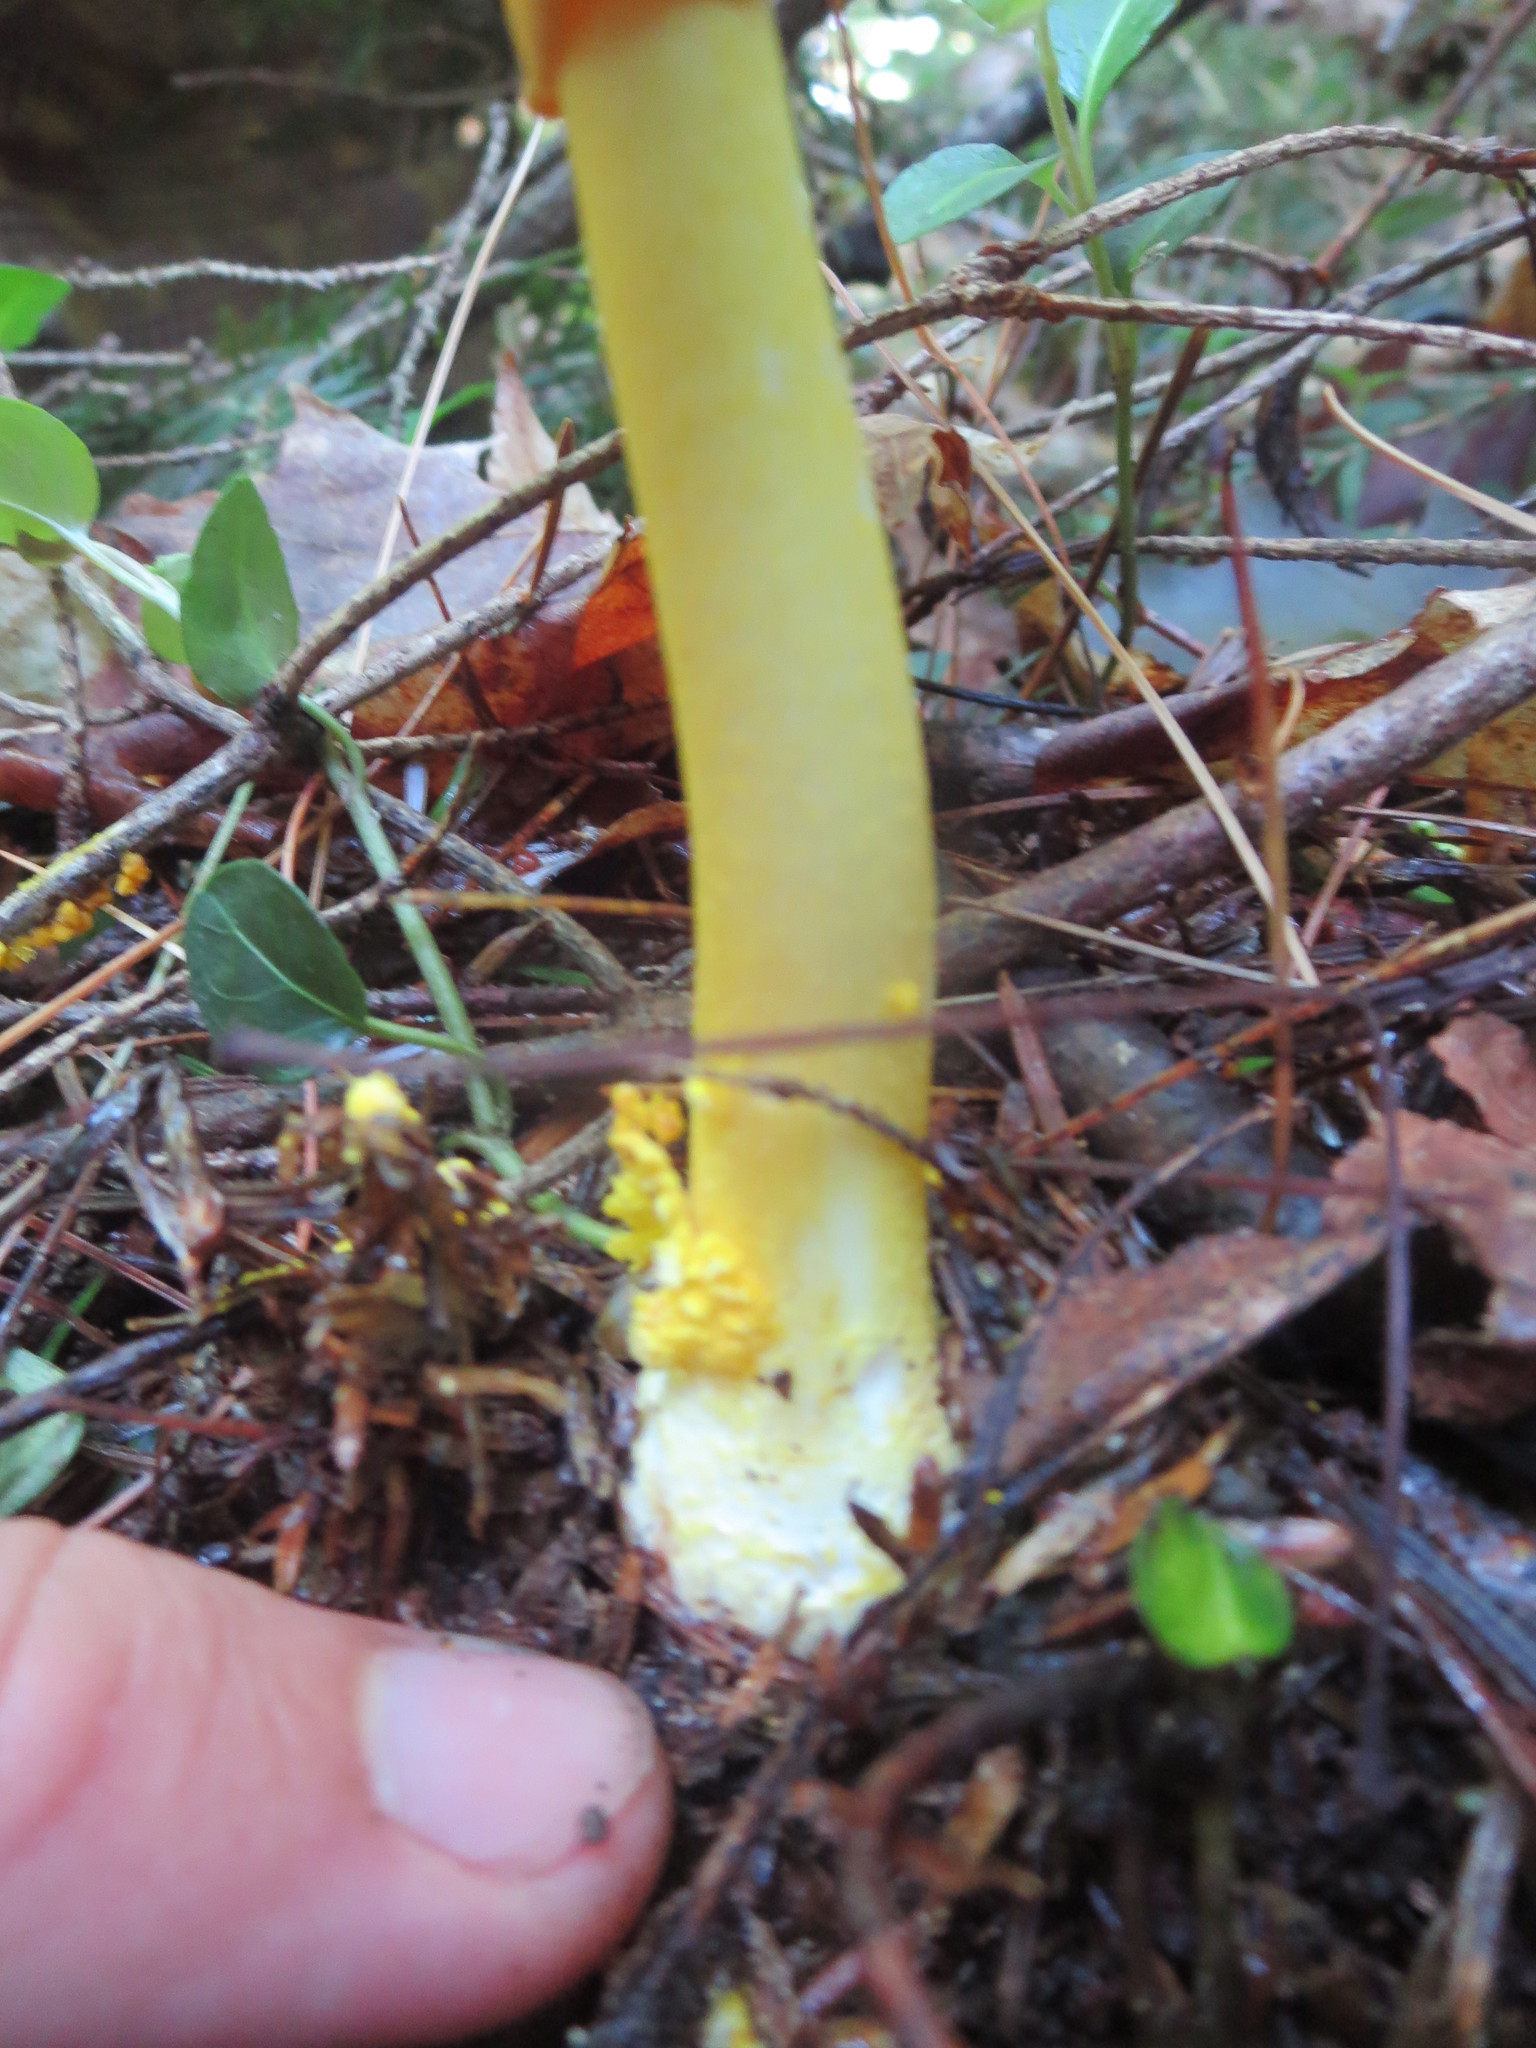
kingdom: Fungi
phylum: Basidiomycota
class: Agaricomycetes
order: Agaricales
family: Amanitaceae
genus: Amanita
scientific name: Amanita flavoconia
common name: Yellow patches
